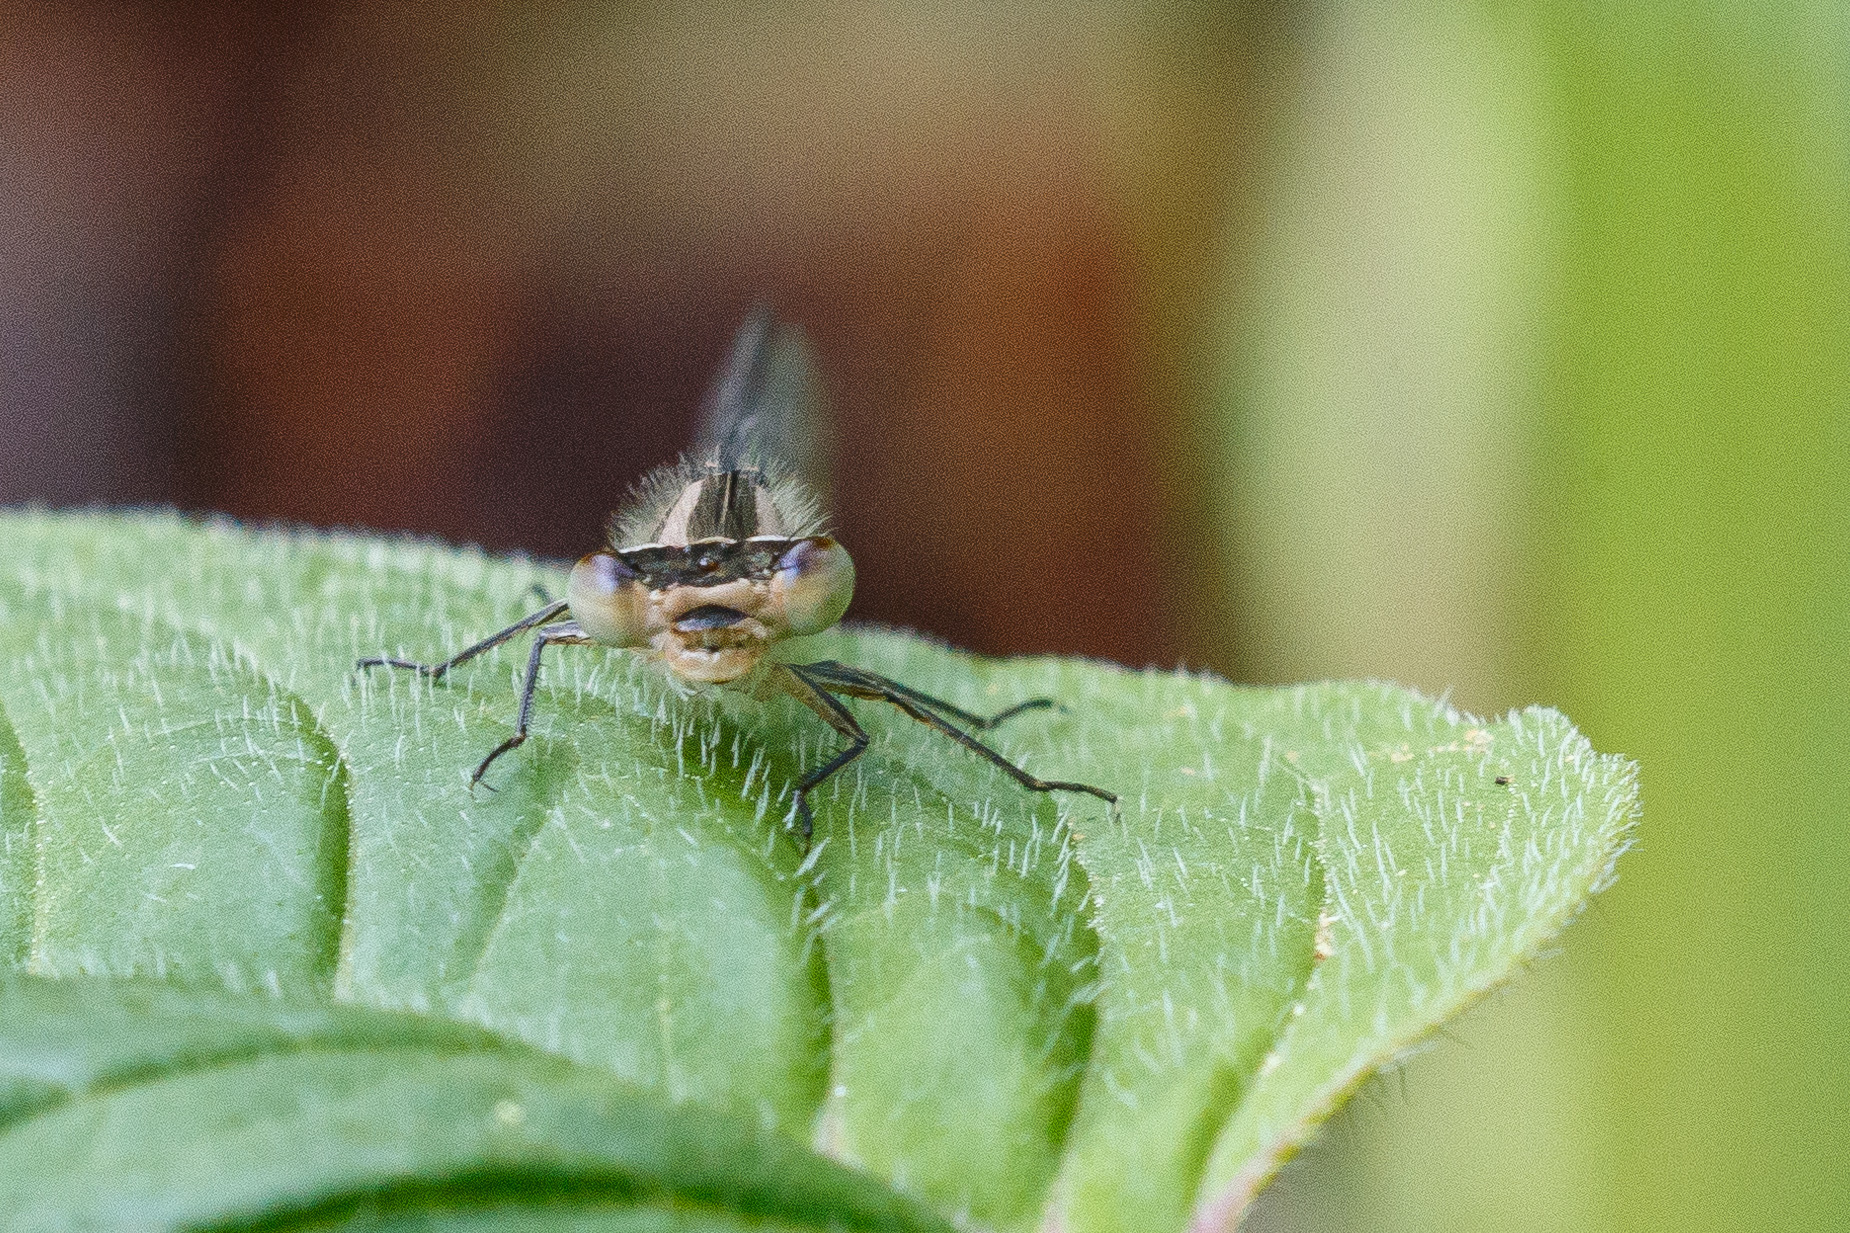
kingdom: Animalia
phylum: Arthropoda
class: Insecta
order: Odonata
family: Coenagrionidae
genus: Enallagma
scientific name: Enallagma carunculatum
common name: Tule bluet
